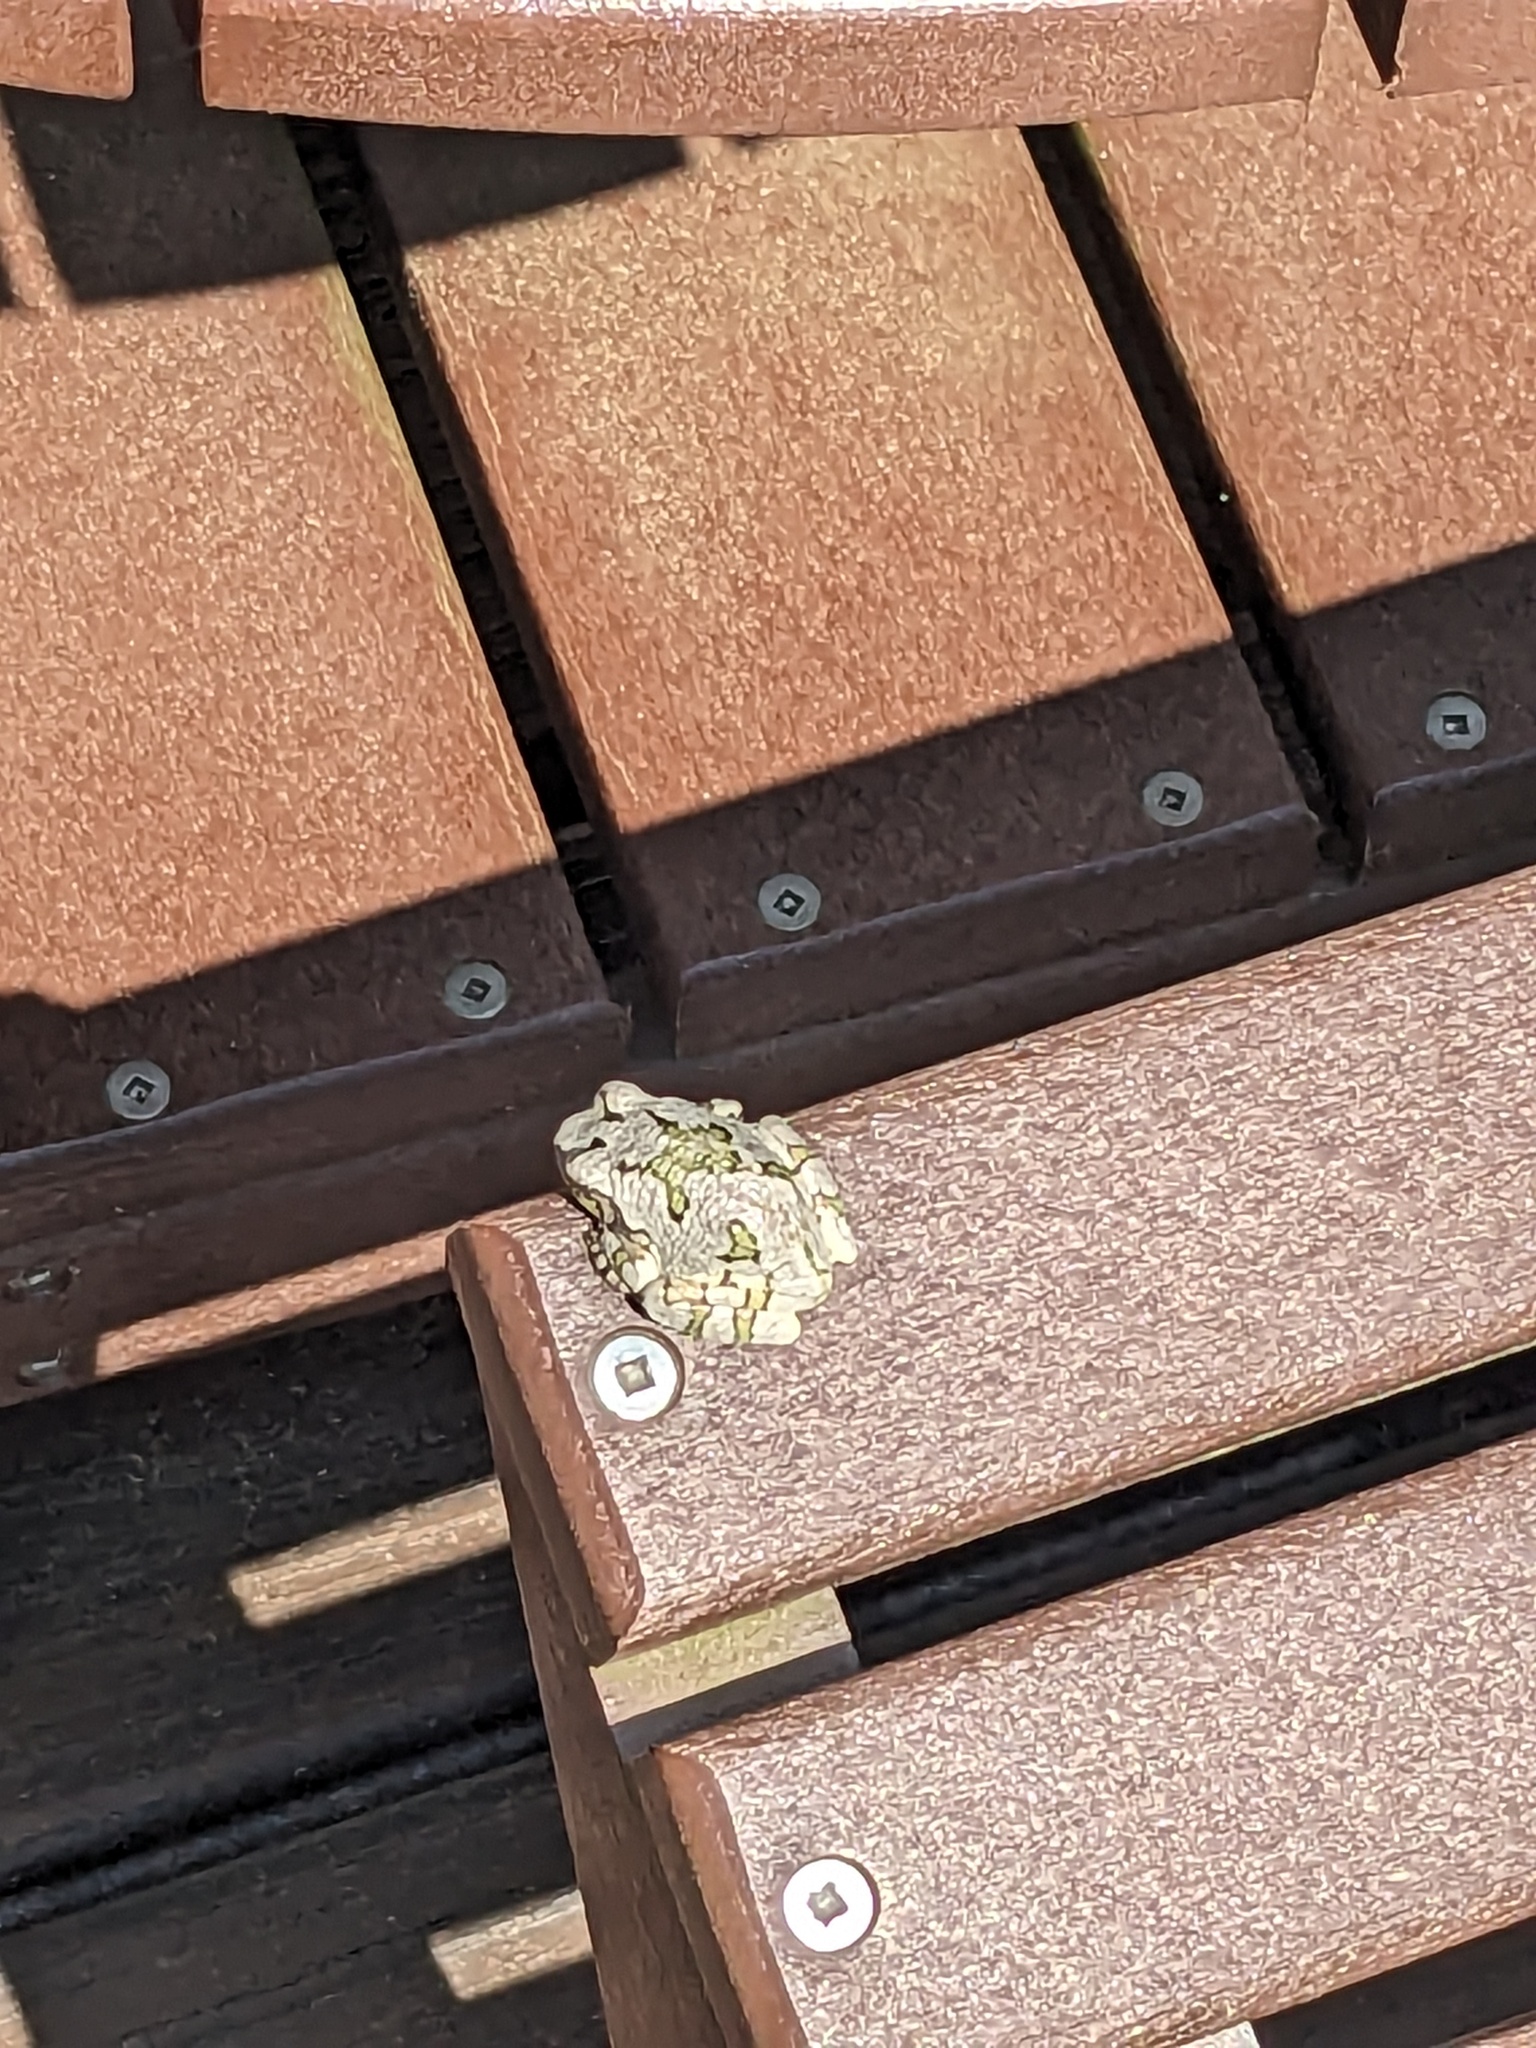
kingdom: Animalia
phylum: Chordata
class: Amphibia
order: Anura
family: Hylidae
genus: Dryophytes
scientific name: Dryophytes versicolor
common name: Gray treefrog
